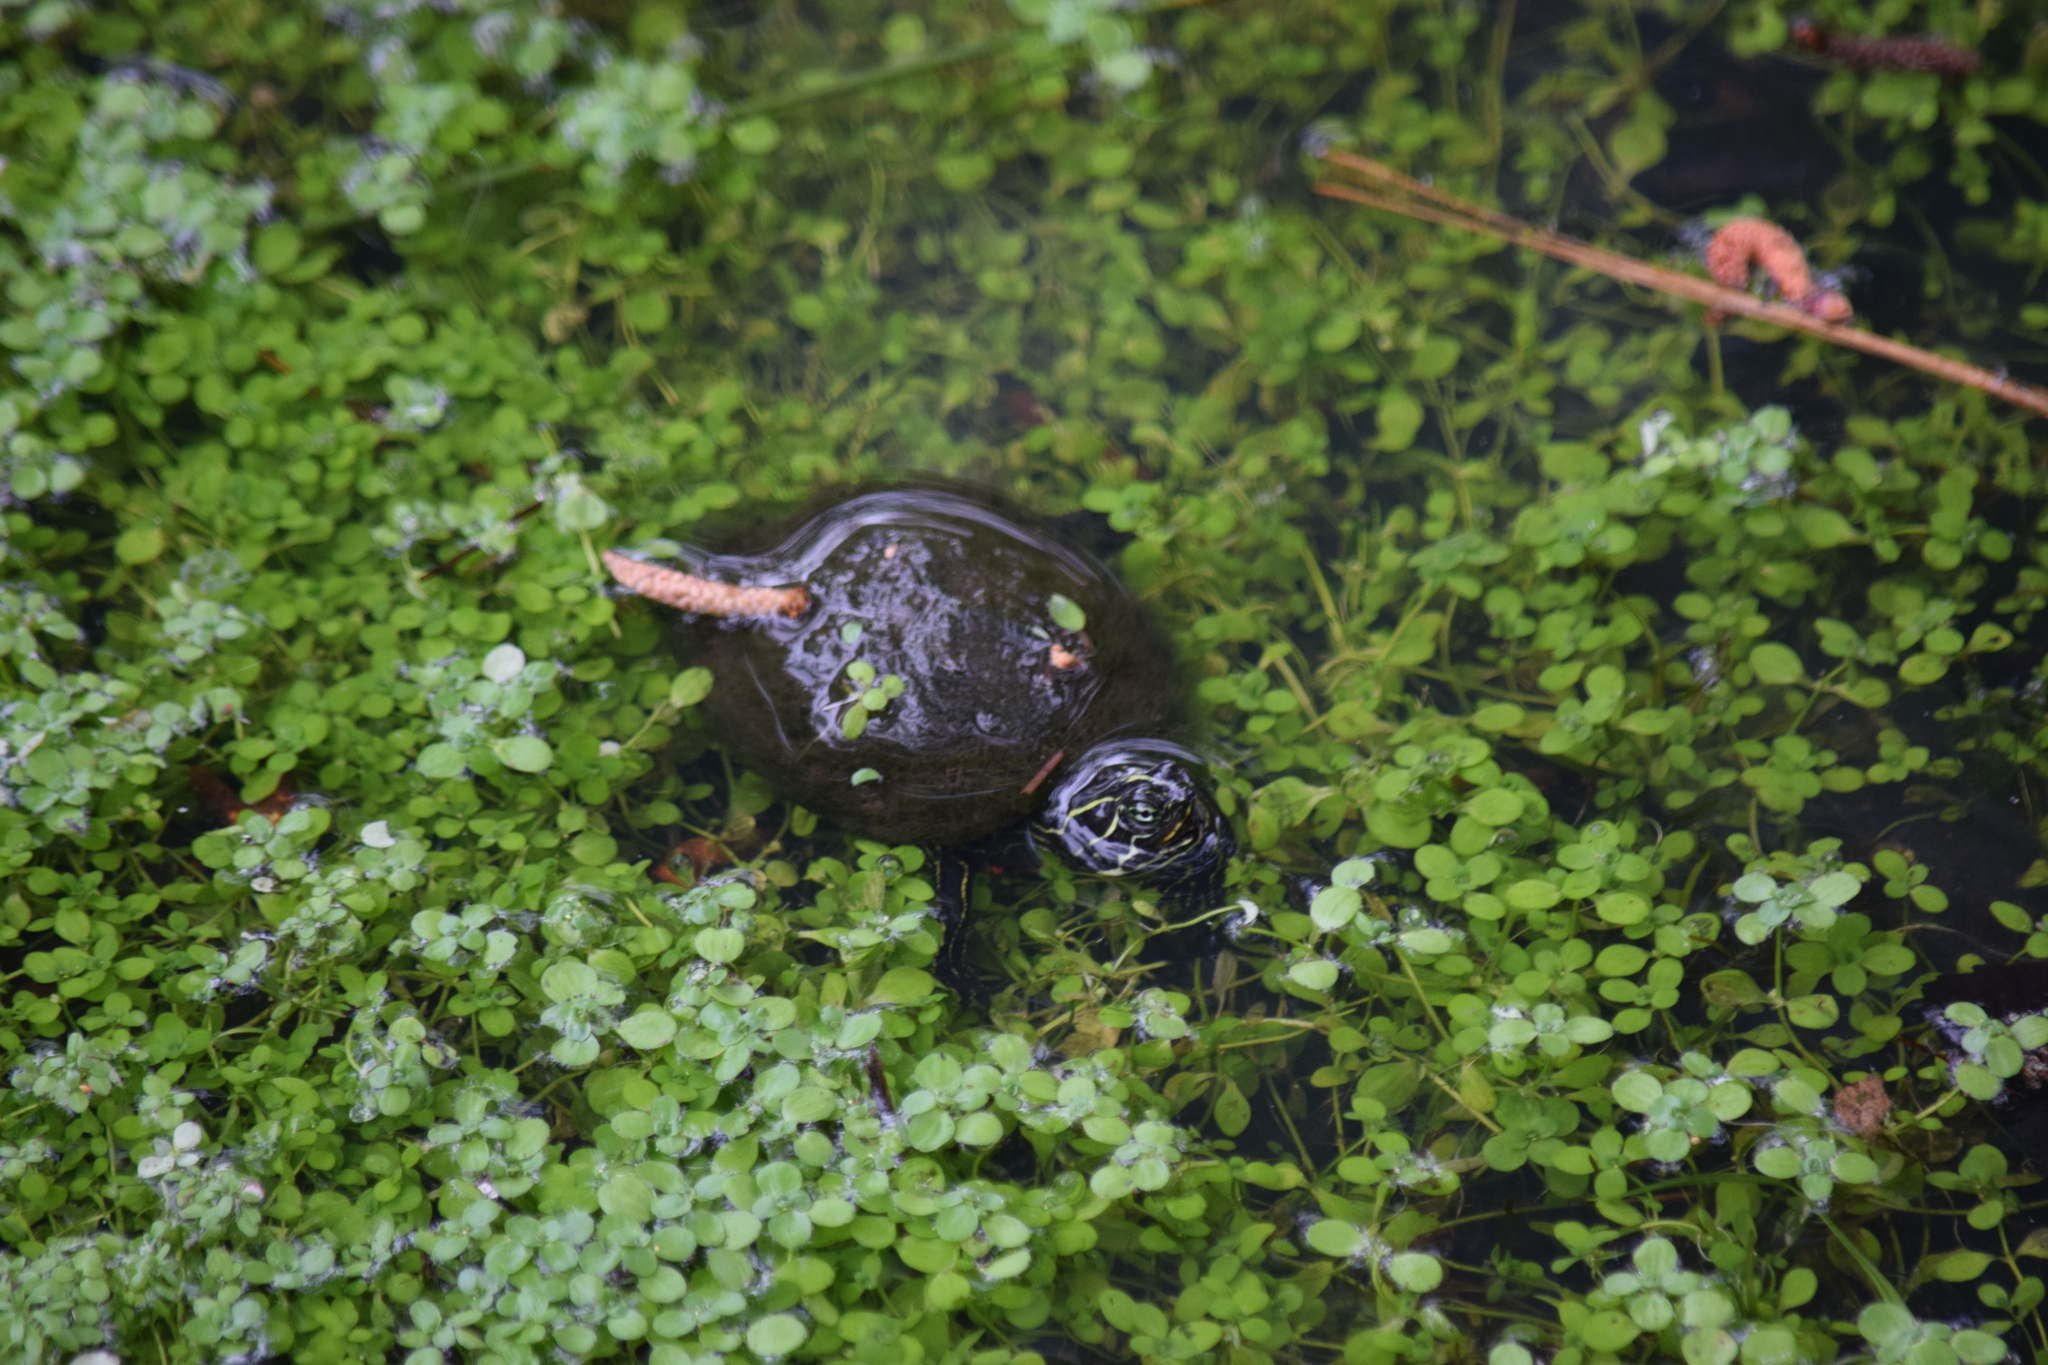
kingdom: Animalia
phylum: Chordata
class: Testudines
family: Emydidae
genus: Pseudemys
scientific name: Pseudemys rubriventris
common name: American red-bellied turtle
